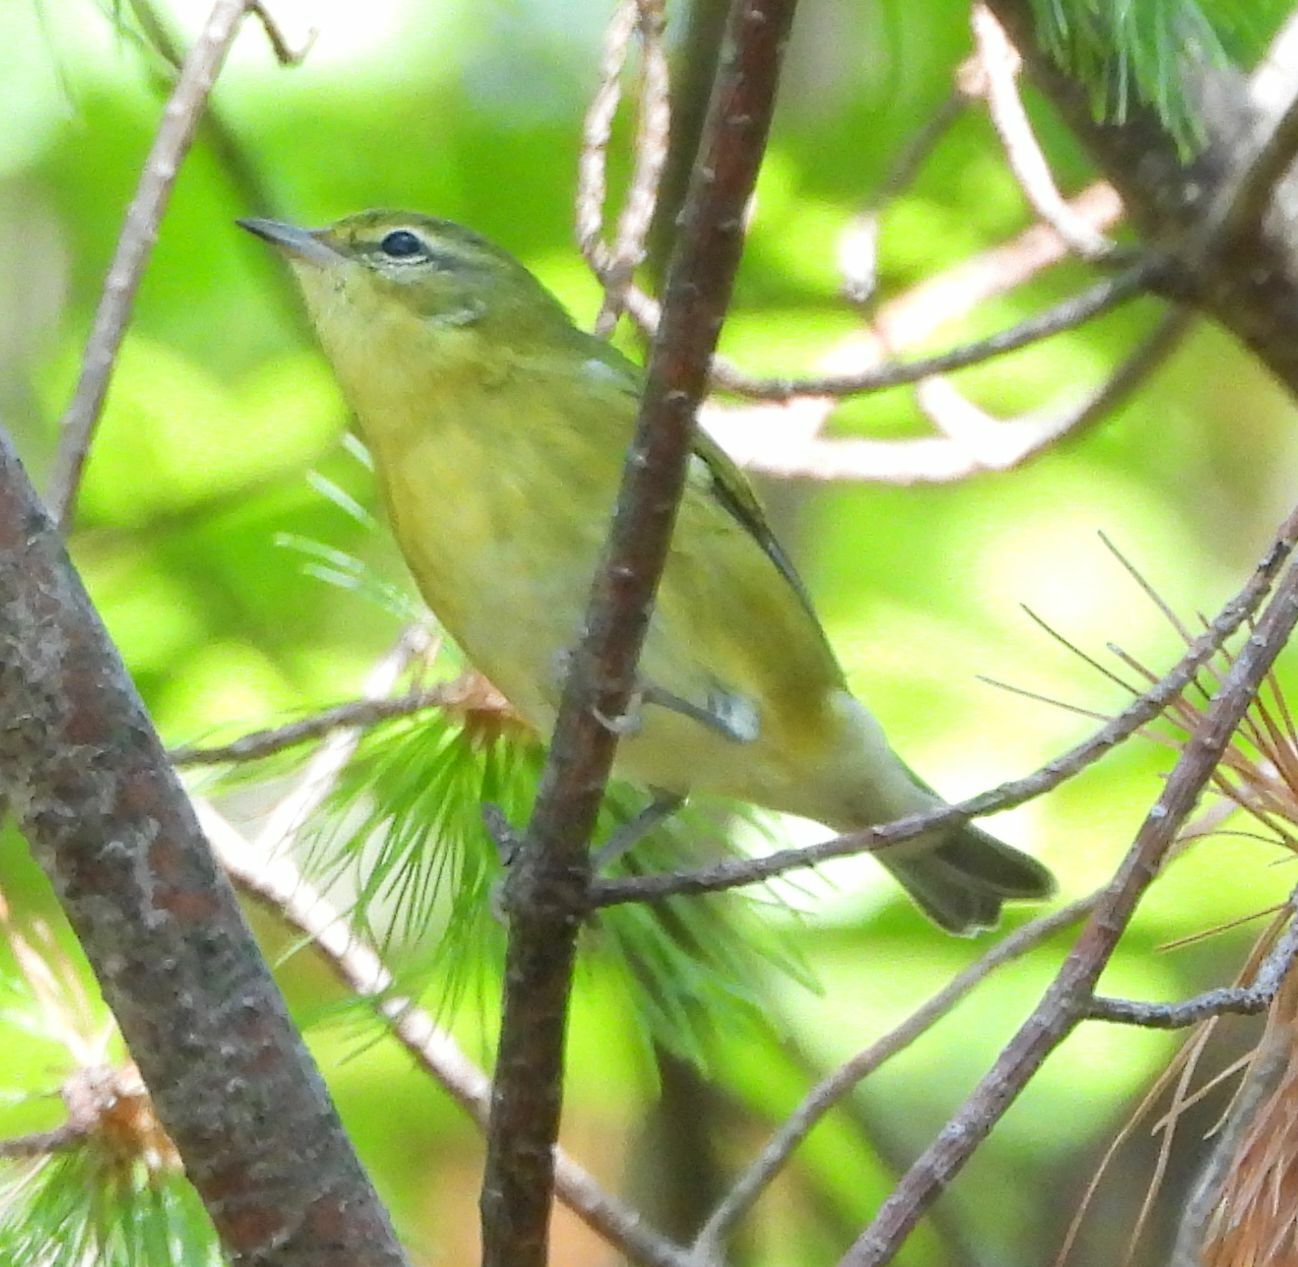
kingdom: Animalia
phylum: Chordata
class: Aves
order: Passeriformes
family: Parulidae
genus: Setophaga
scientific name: Setophaga castanea
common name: Bay-breasted warbler
